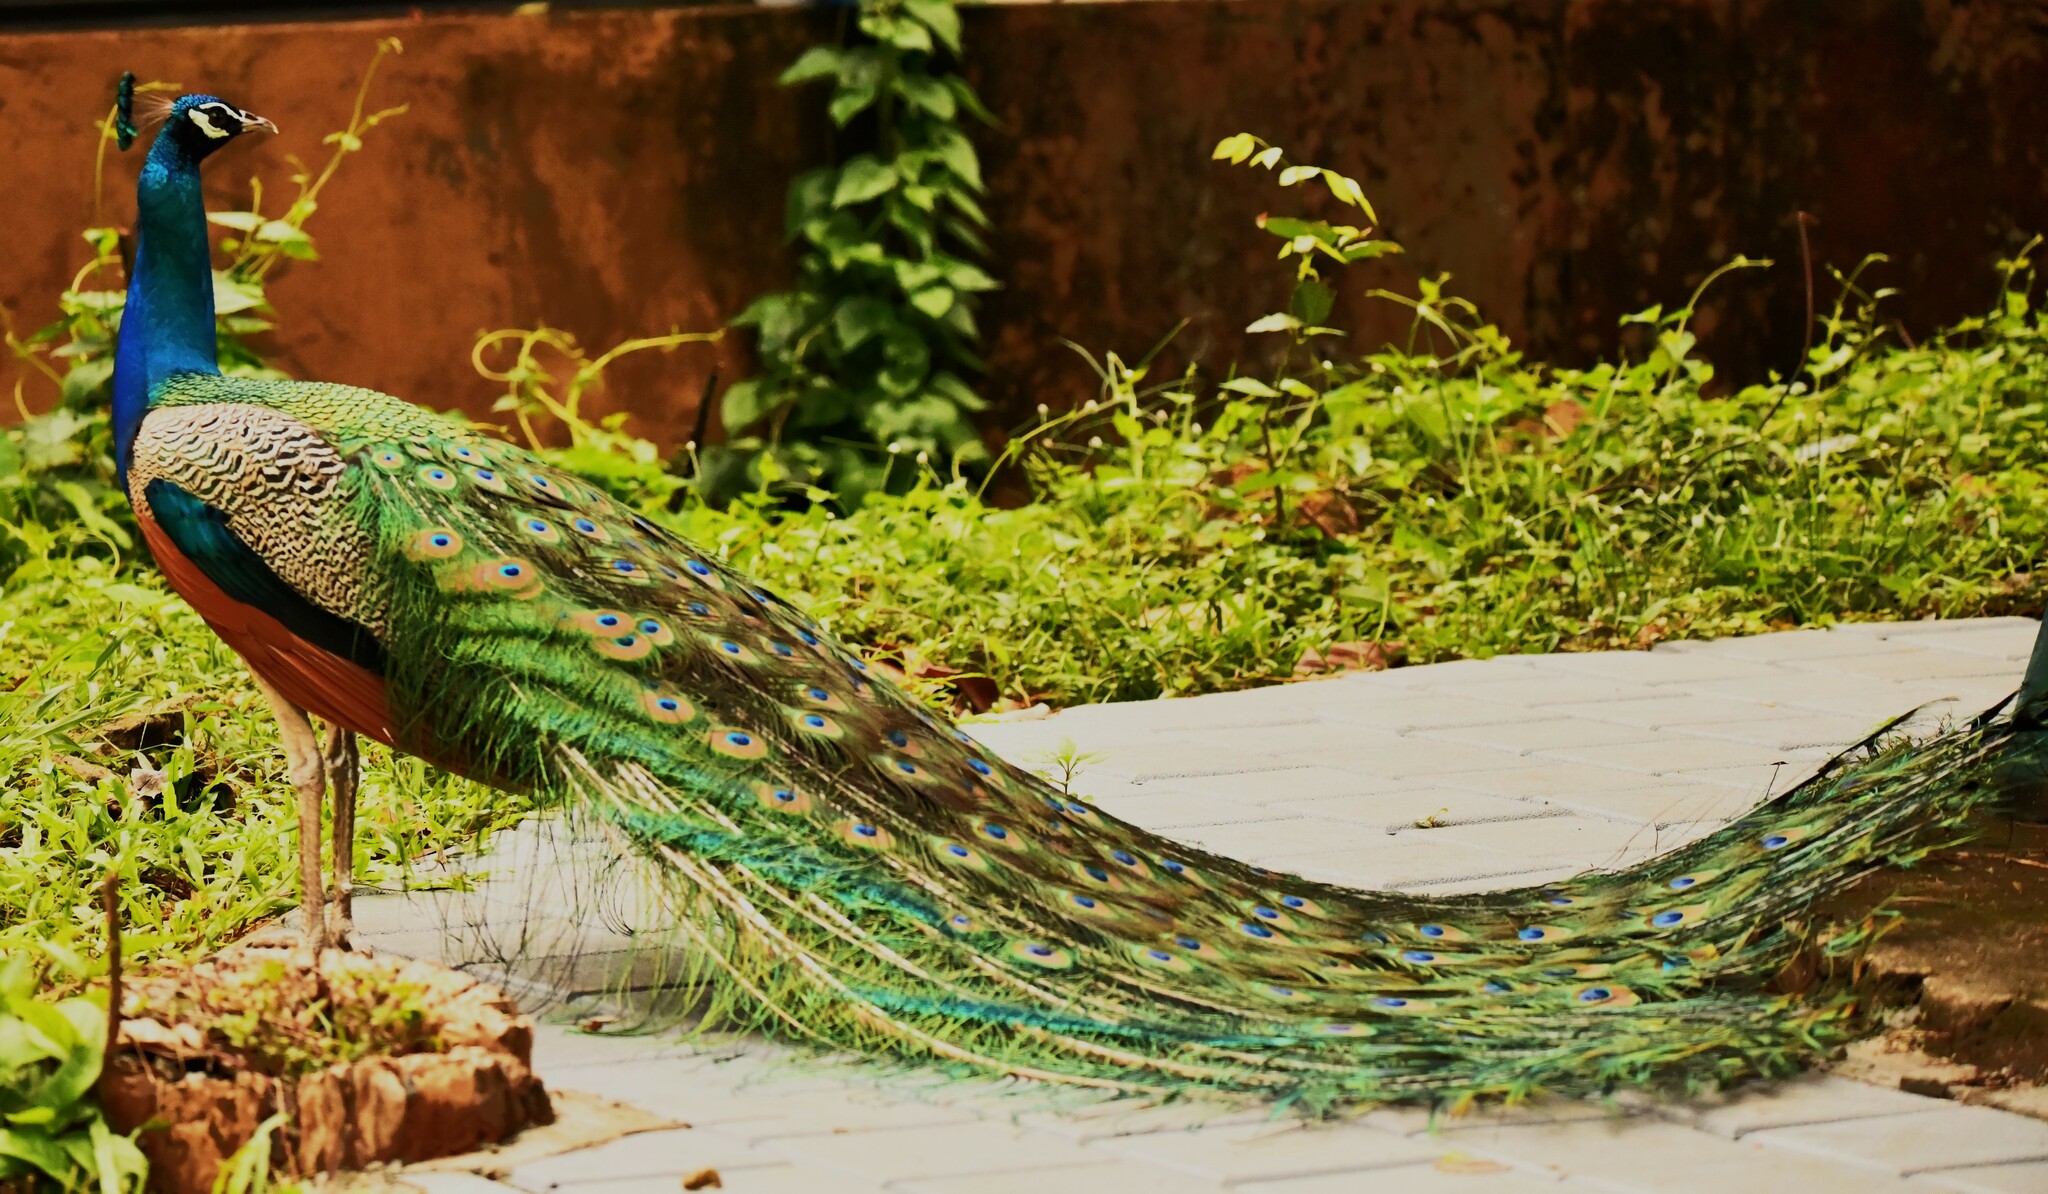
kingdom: Animalia
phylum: Chordata
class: Aves
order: Galliformes
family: Phasianidae
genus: Pavo
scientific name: Pavo cristatus
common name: Indian peafowl
